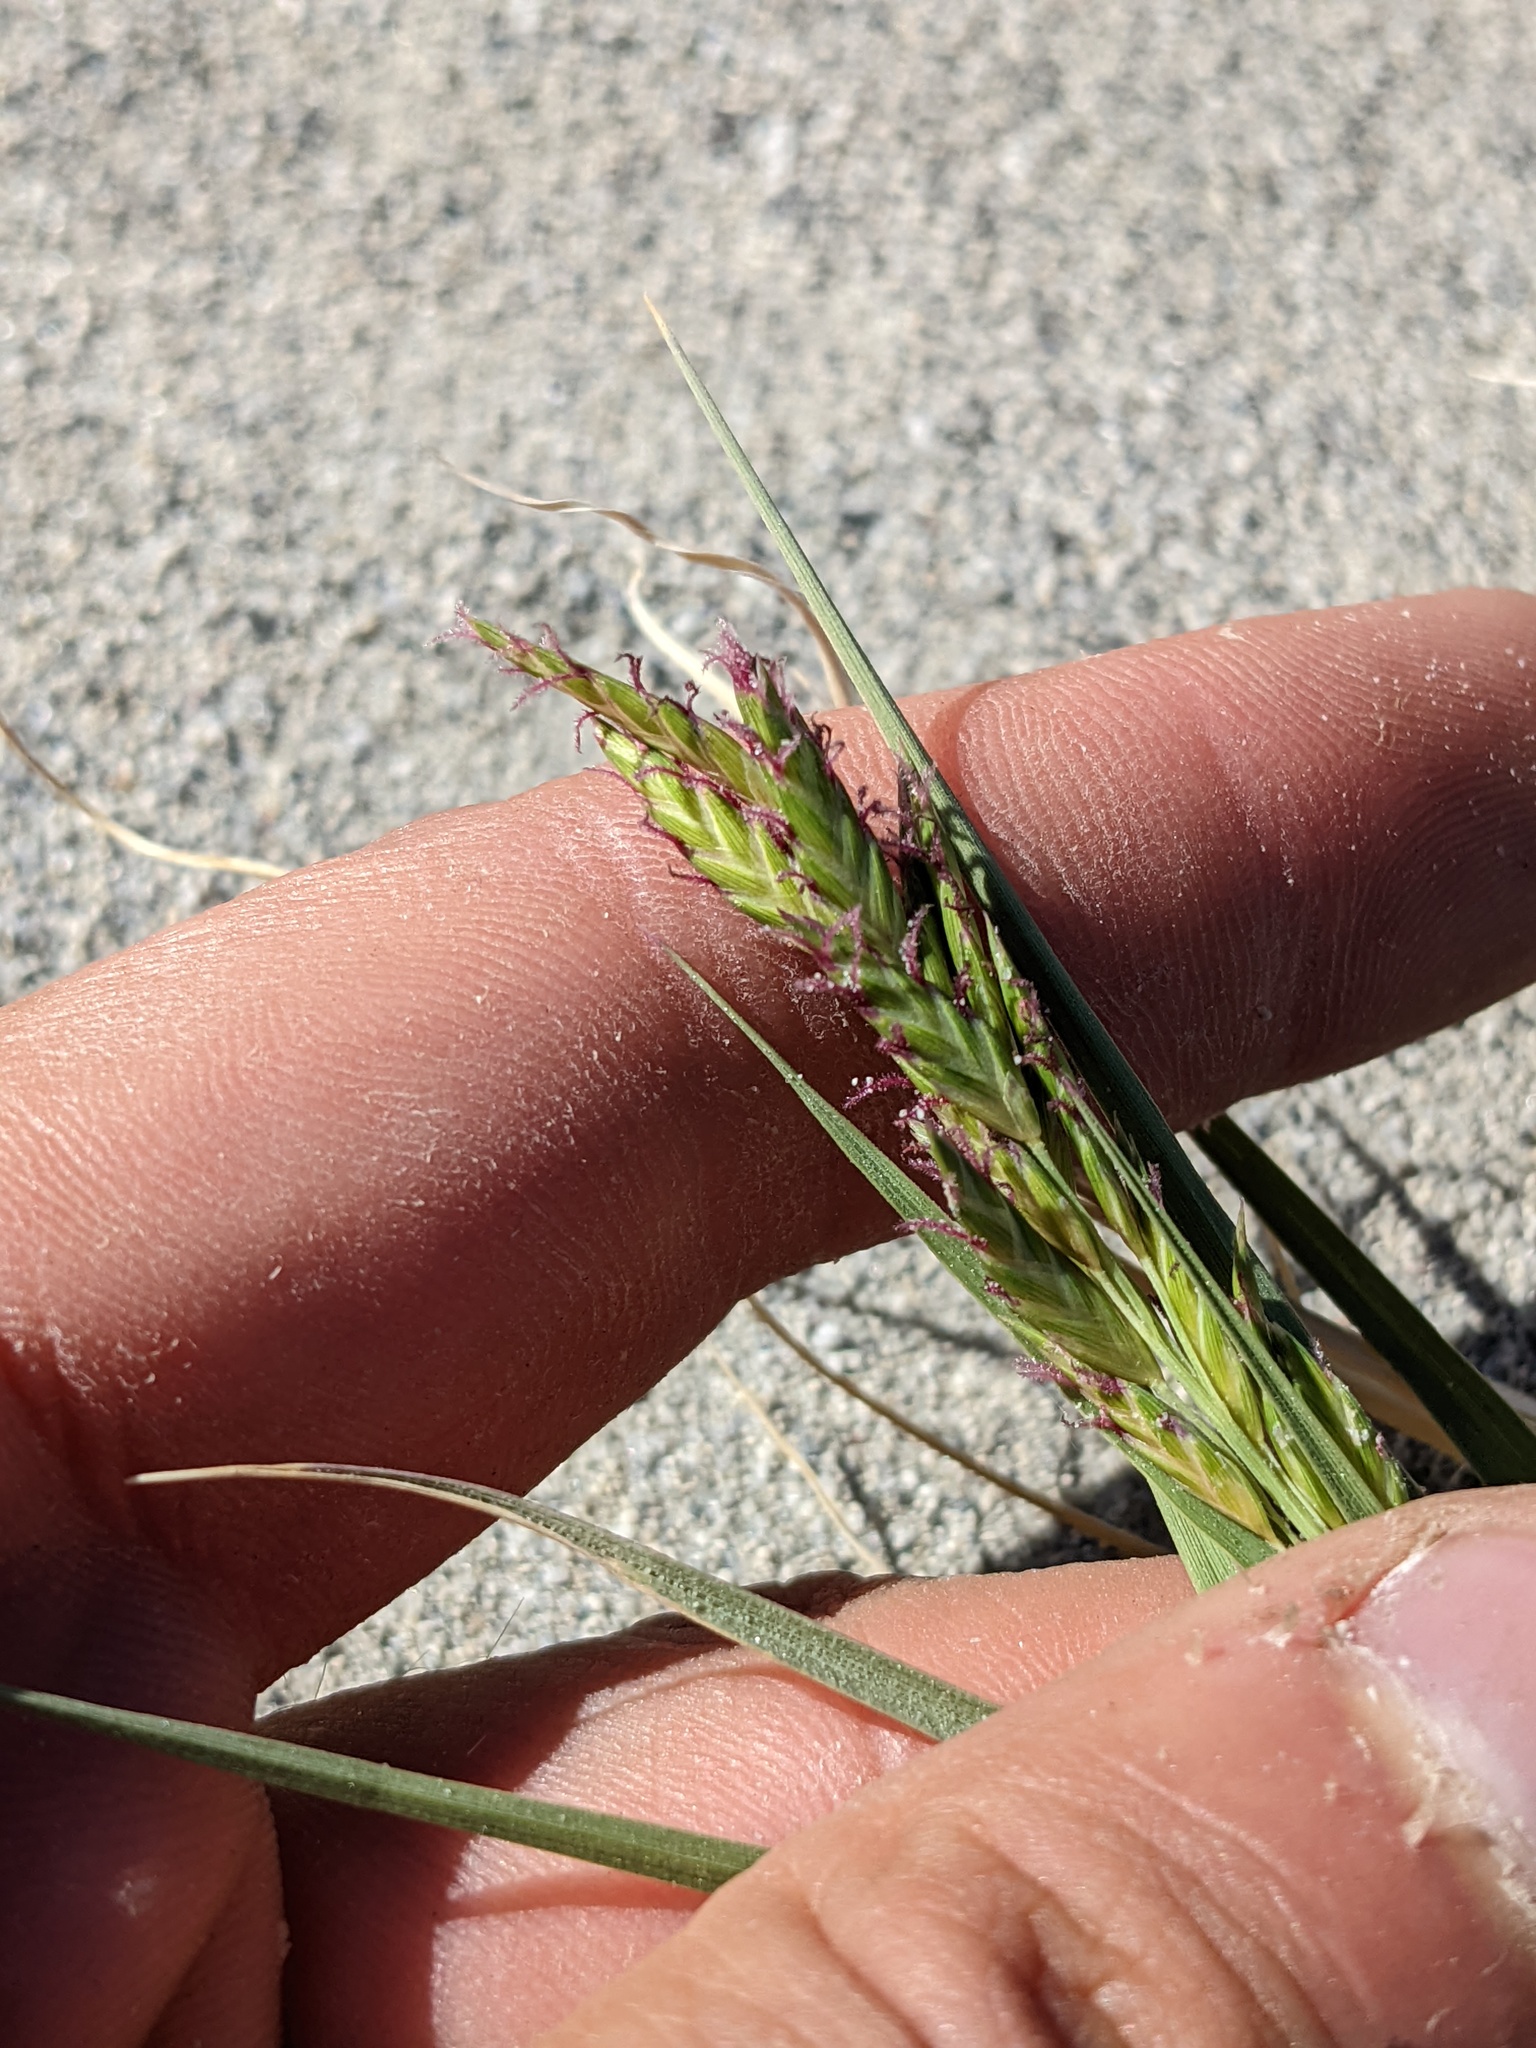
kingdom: Plantae
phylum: Tracheophyta
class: Liliopsida
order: Poales
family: Poaceae
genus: Distichlis
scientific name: Distichlis spicata
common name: Saltgrass
